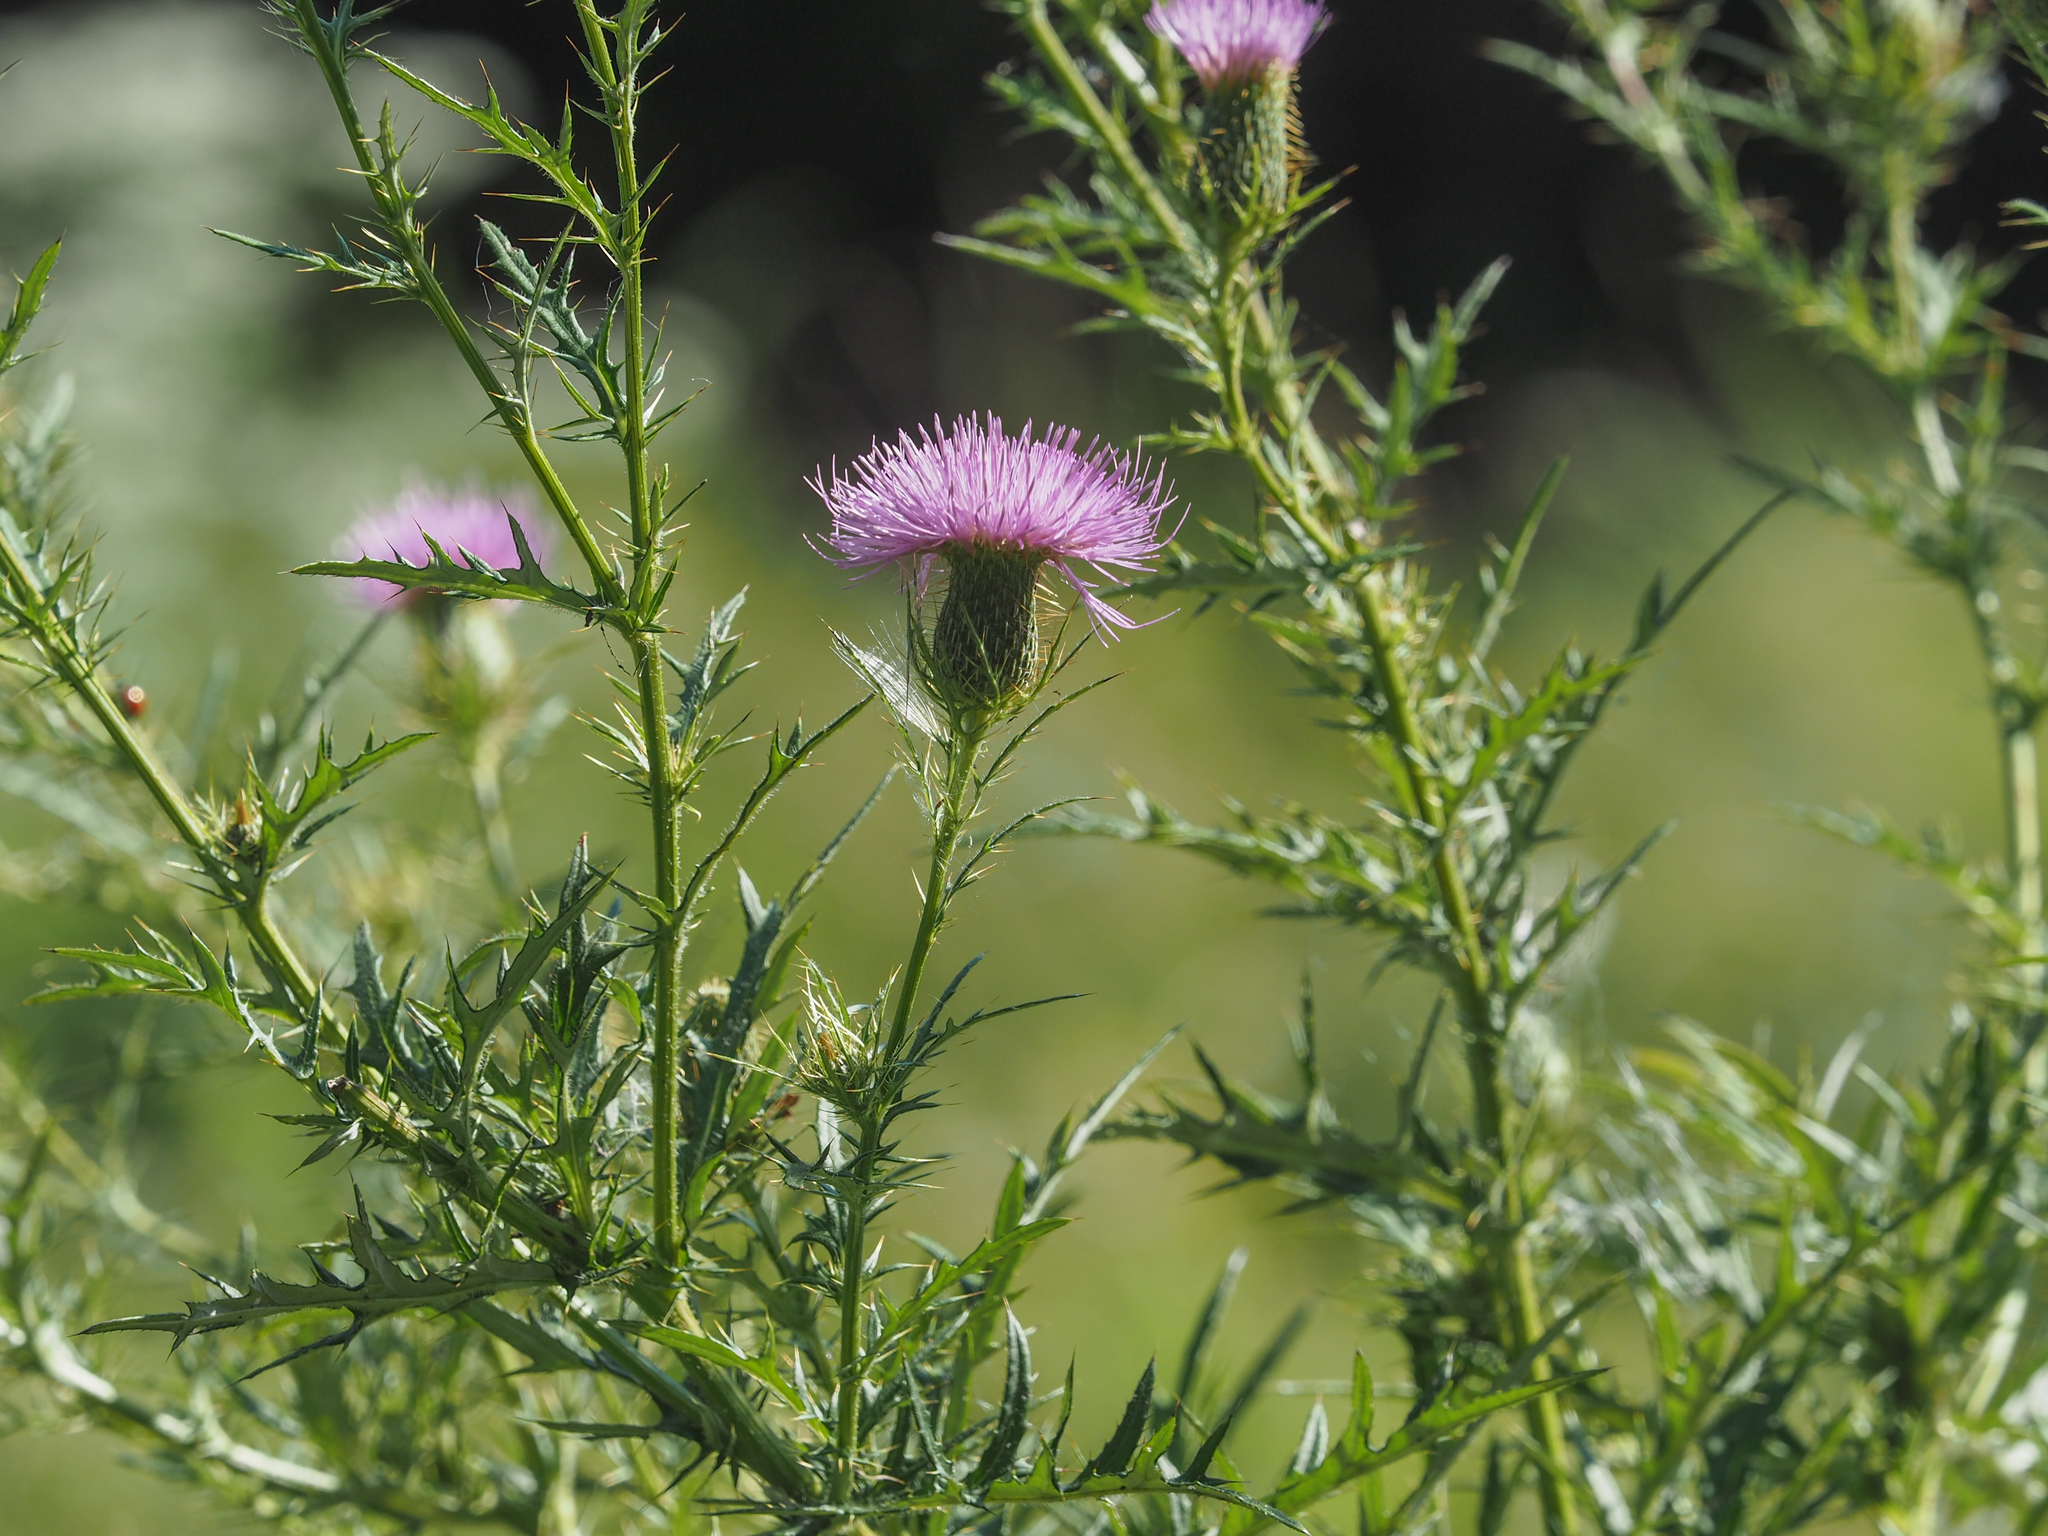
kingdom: Plantae
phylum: Tracheophyta
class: Magnoliopsida
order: Asterales
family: Asteraceae
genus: Cirsium
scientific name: Cirsium discolor
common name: Field thistle
